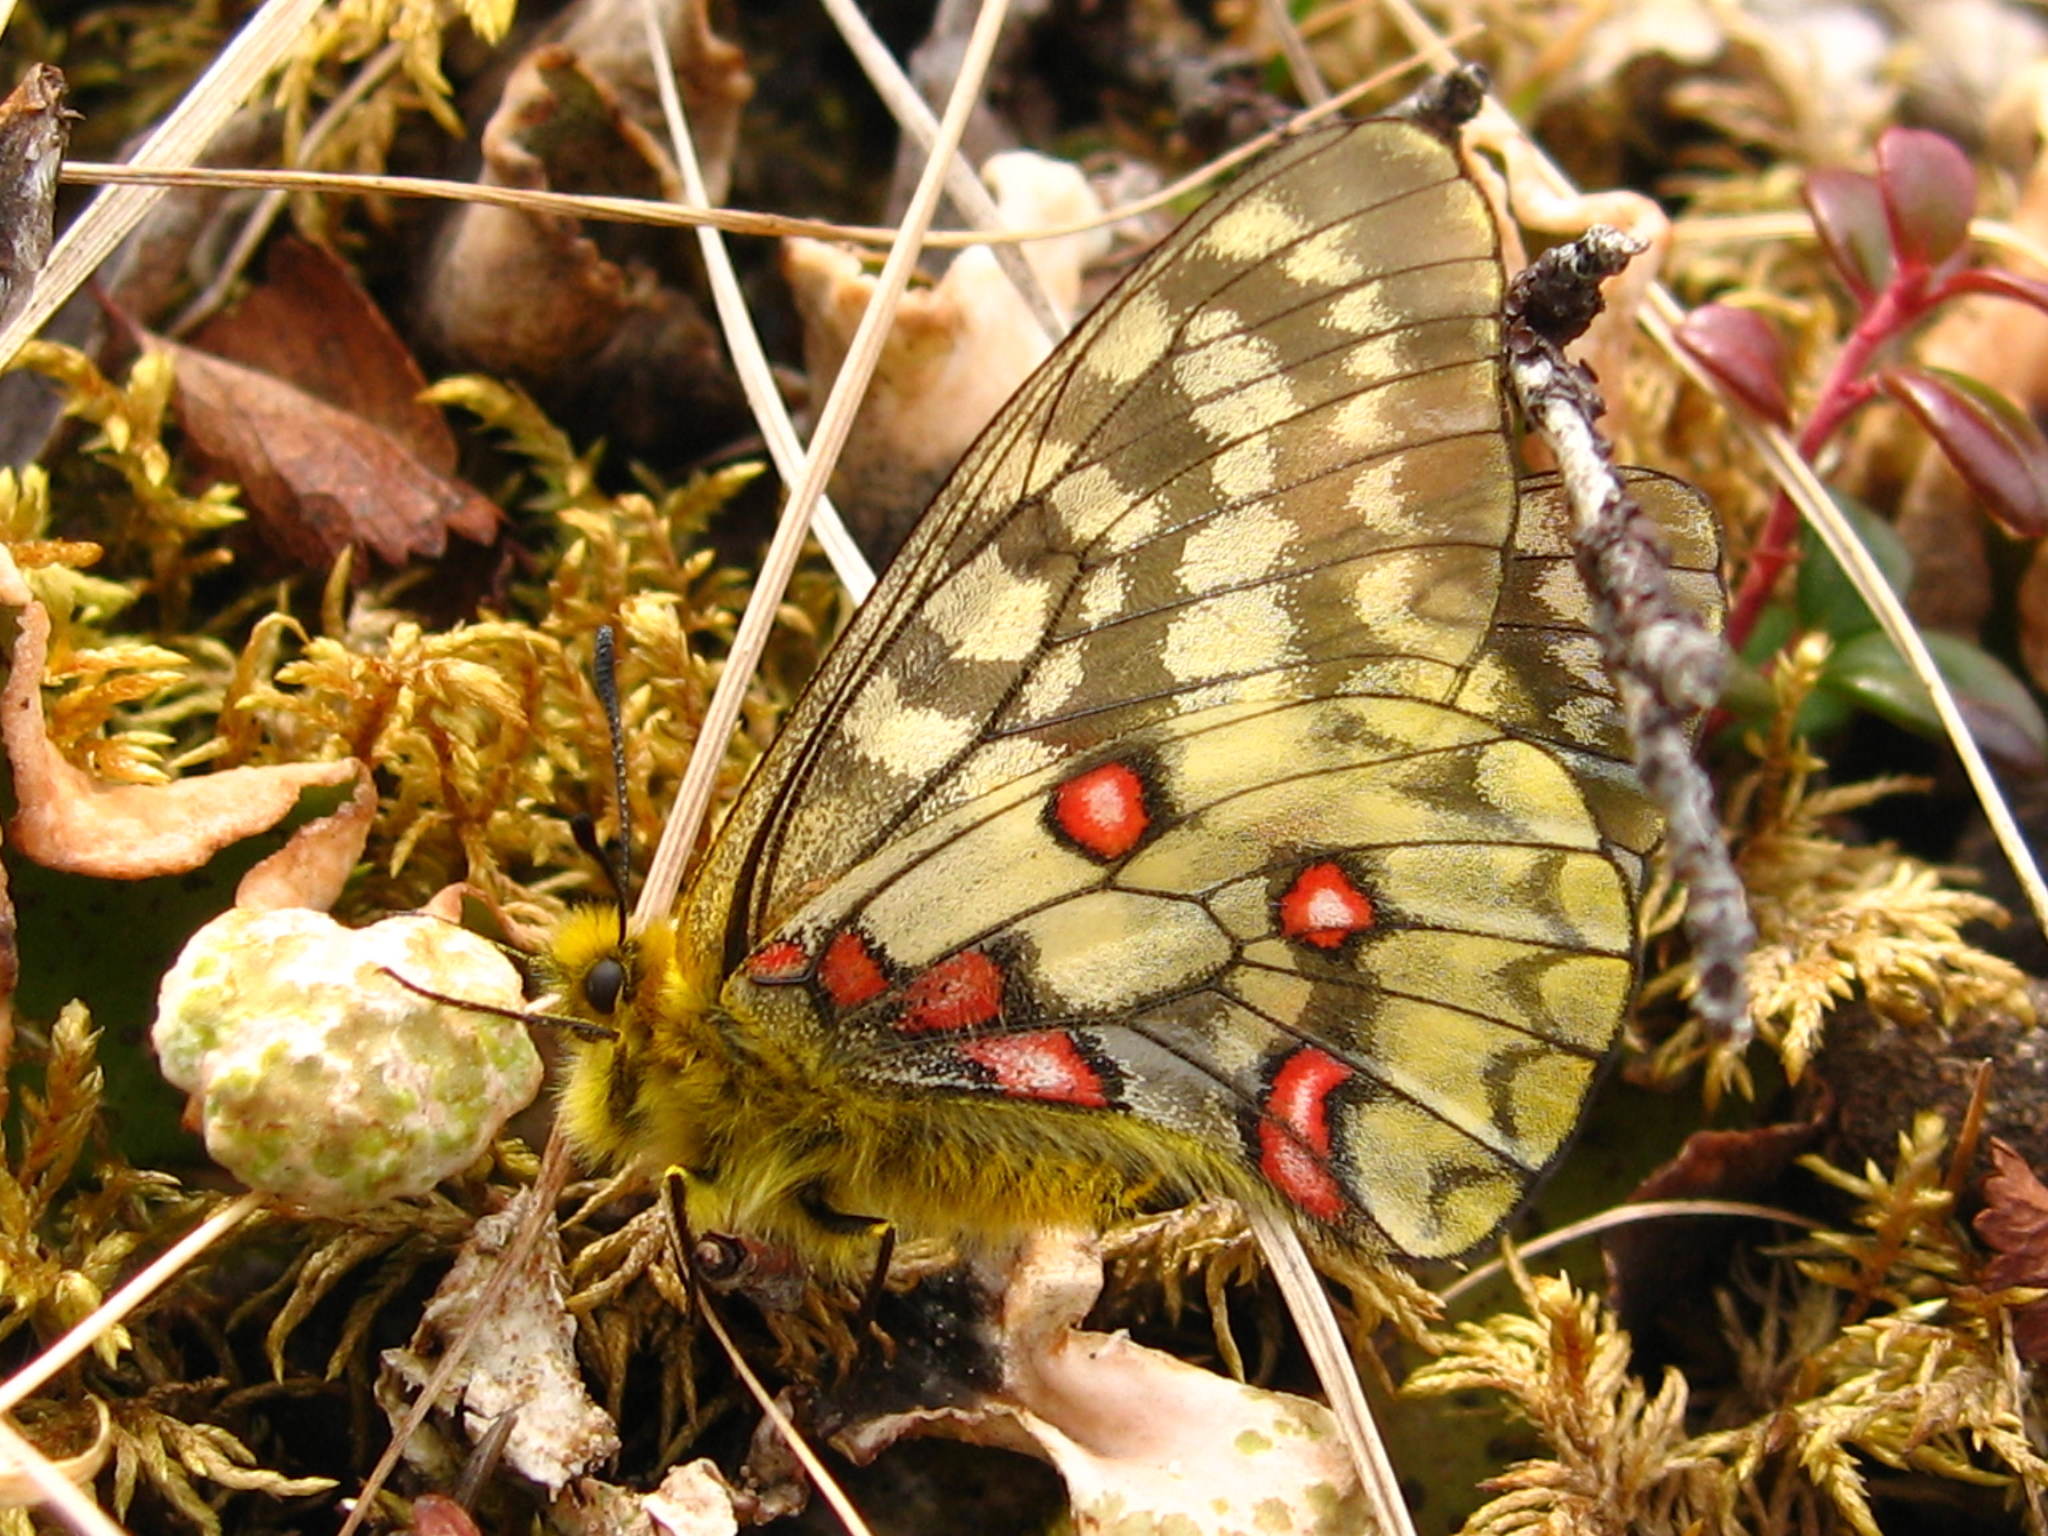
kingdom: Animalia
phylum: Arthropoda
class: Insecta
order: Lepidoptera
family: Papilionidae
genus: Parnassius
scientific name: Parnassius eversmanni
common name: Eversmann's parnassian
